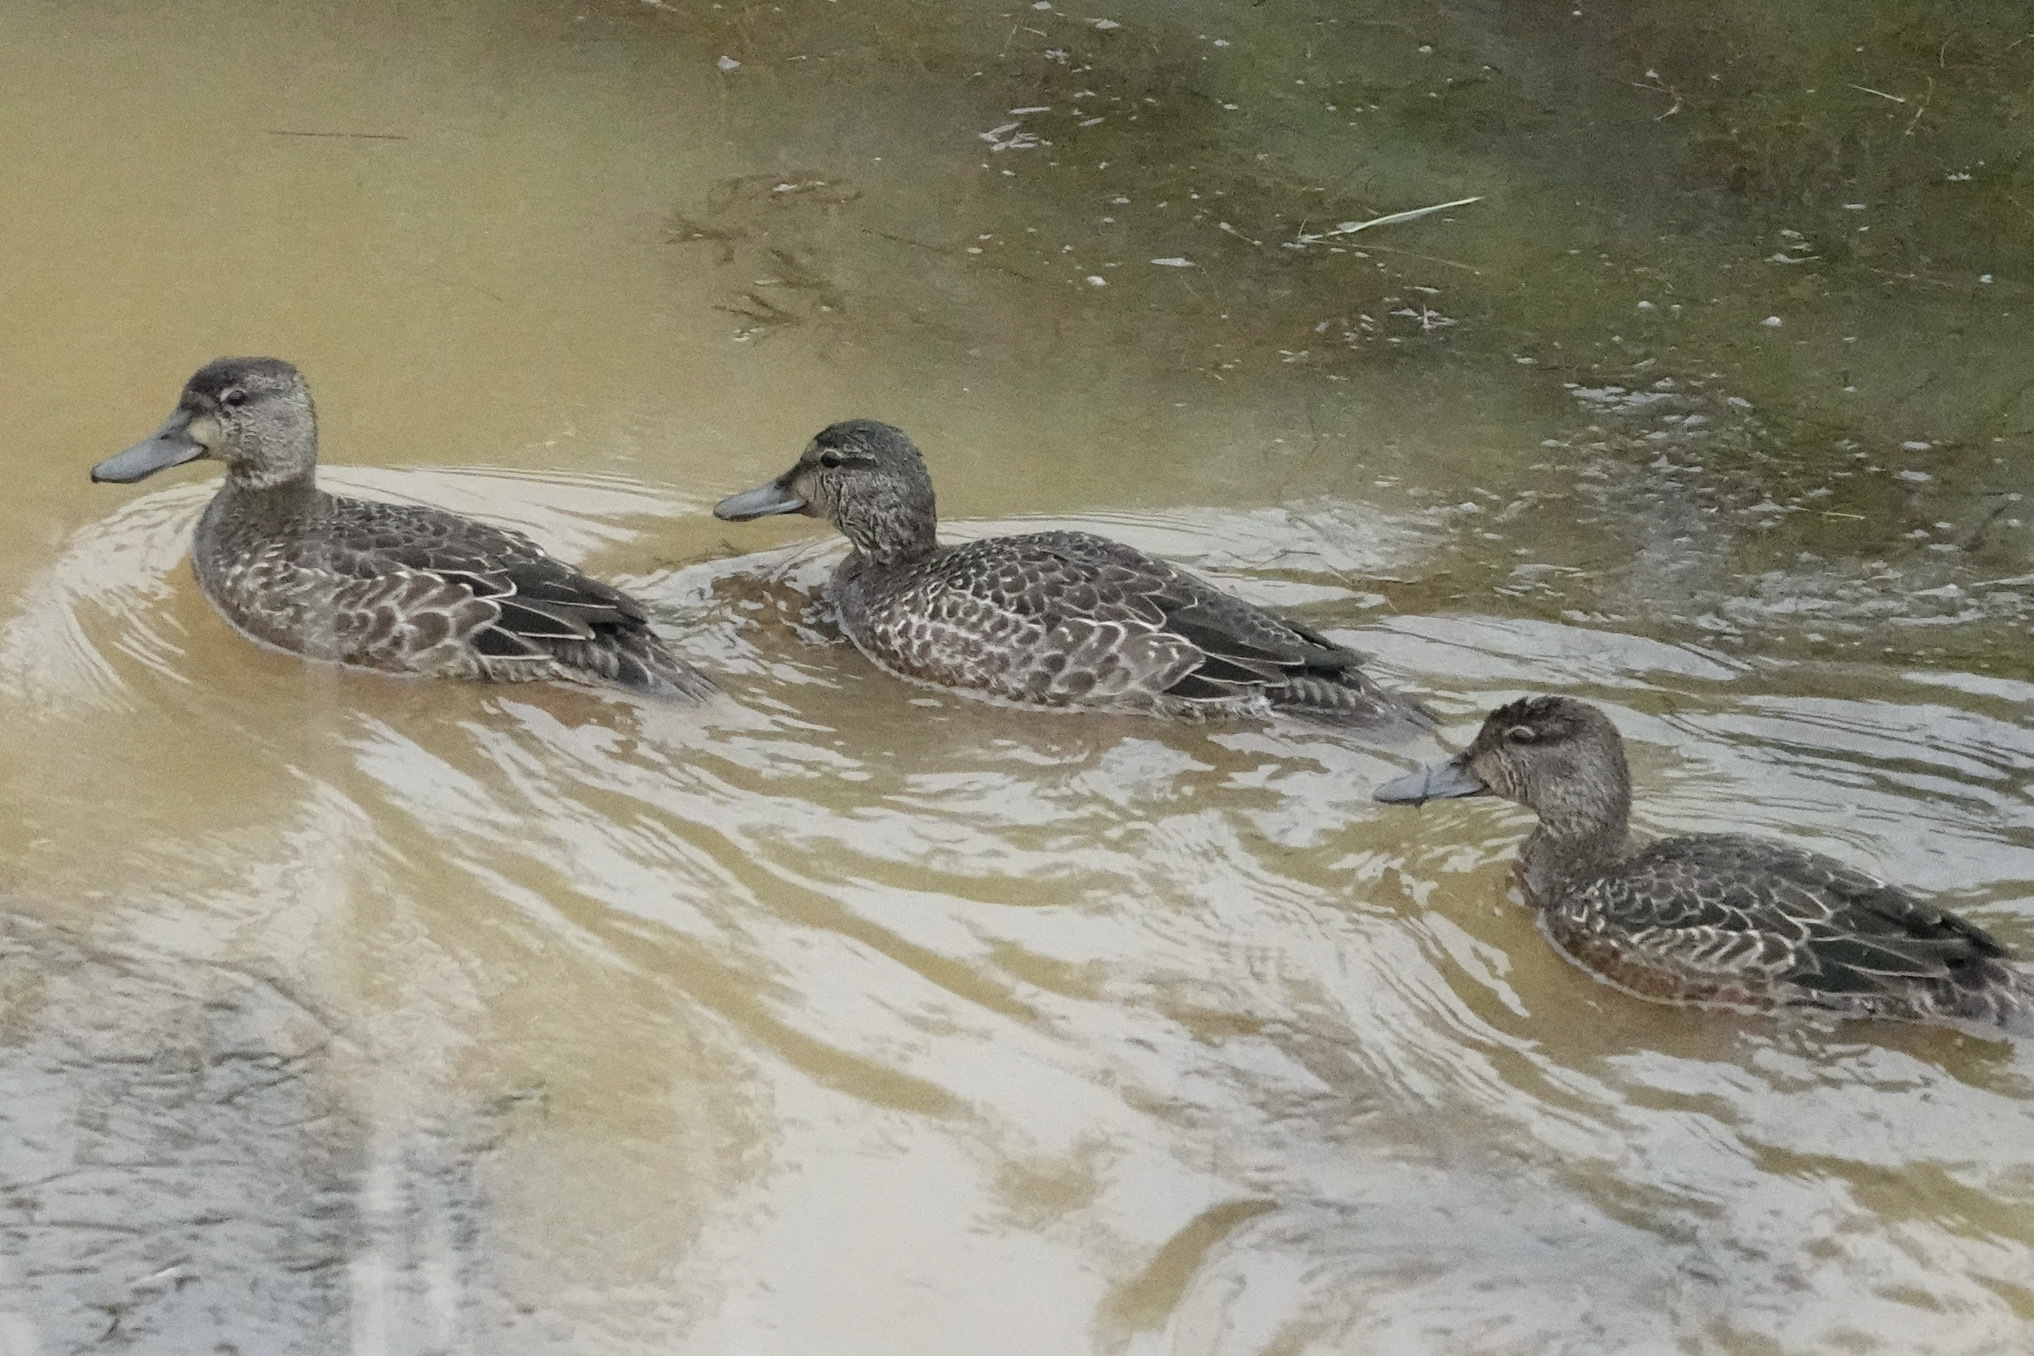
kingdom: Animalia
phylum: Chordata
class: Aves
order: Anseriformes
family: Anatidae
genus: Spatula
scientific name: Spatula discors
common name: Blue-winged teal
